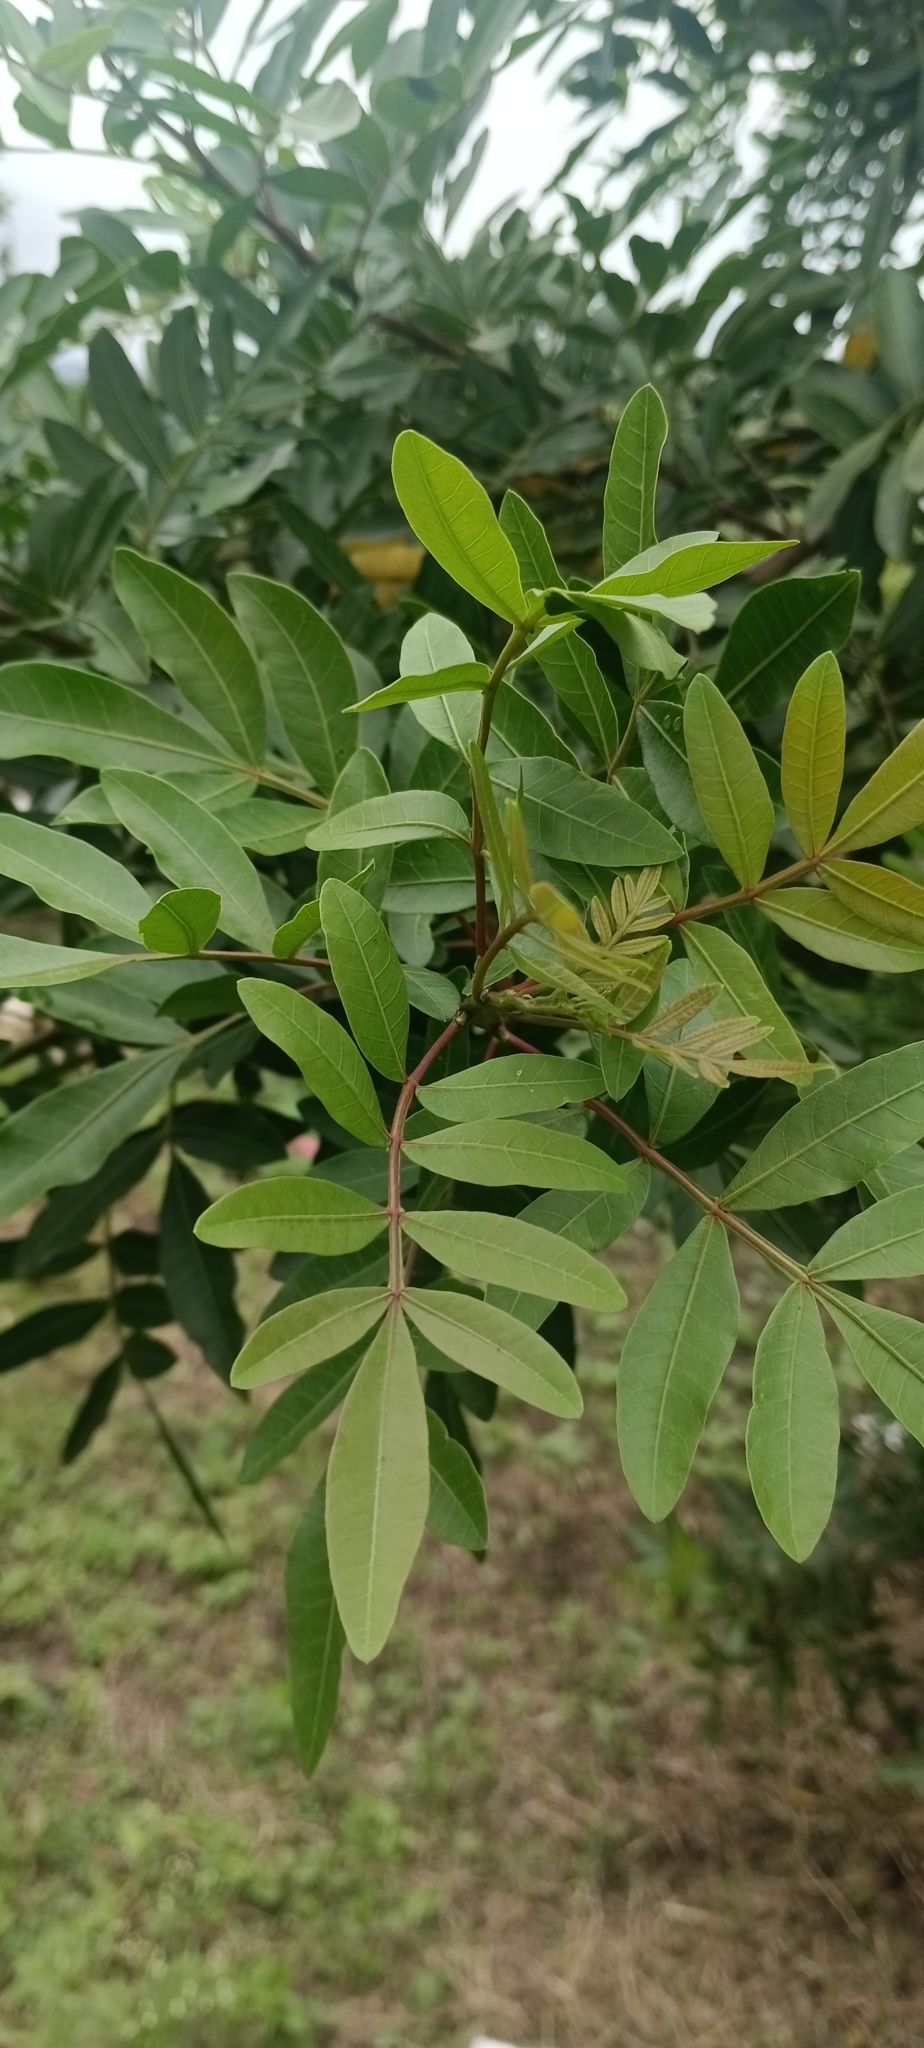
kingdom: Plantae
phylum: Tracheophyta
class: Magnoliopsida
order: Sapindales
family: Anacardiaceae
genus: Schinus
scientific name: Schinus terebinthifolia
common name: Brazilian peppertree
